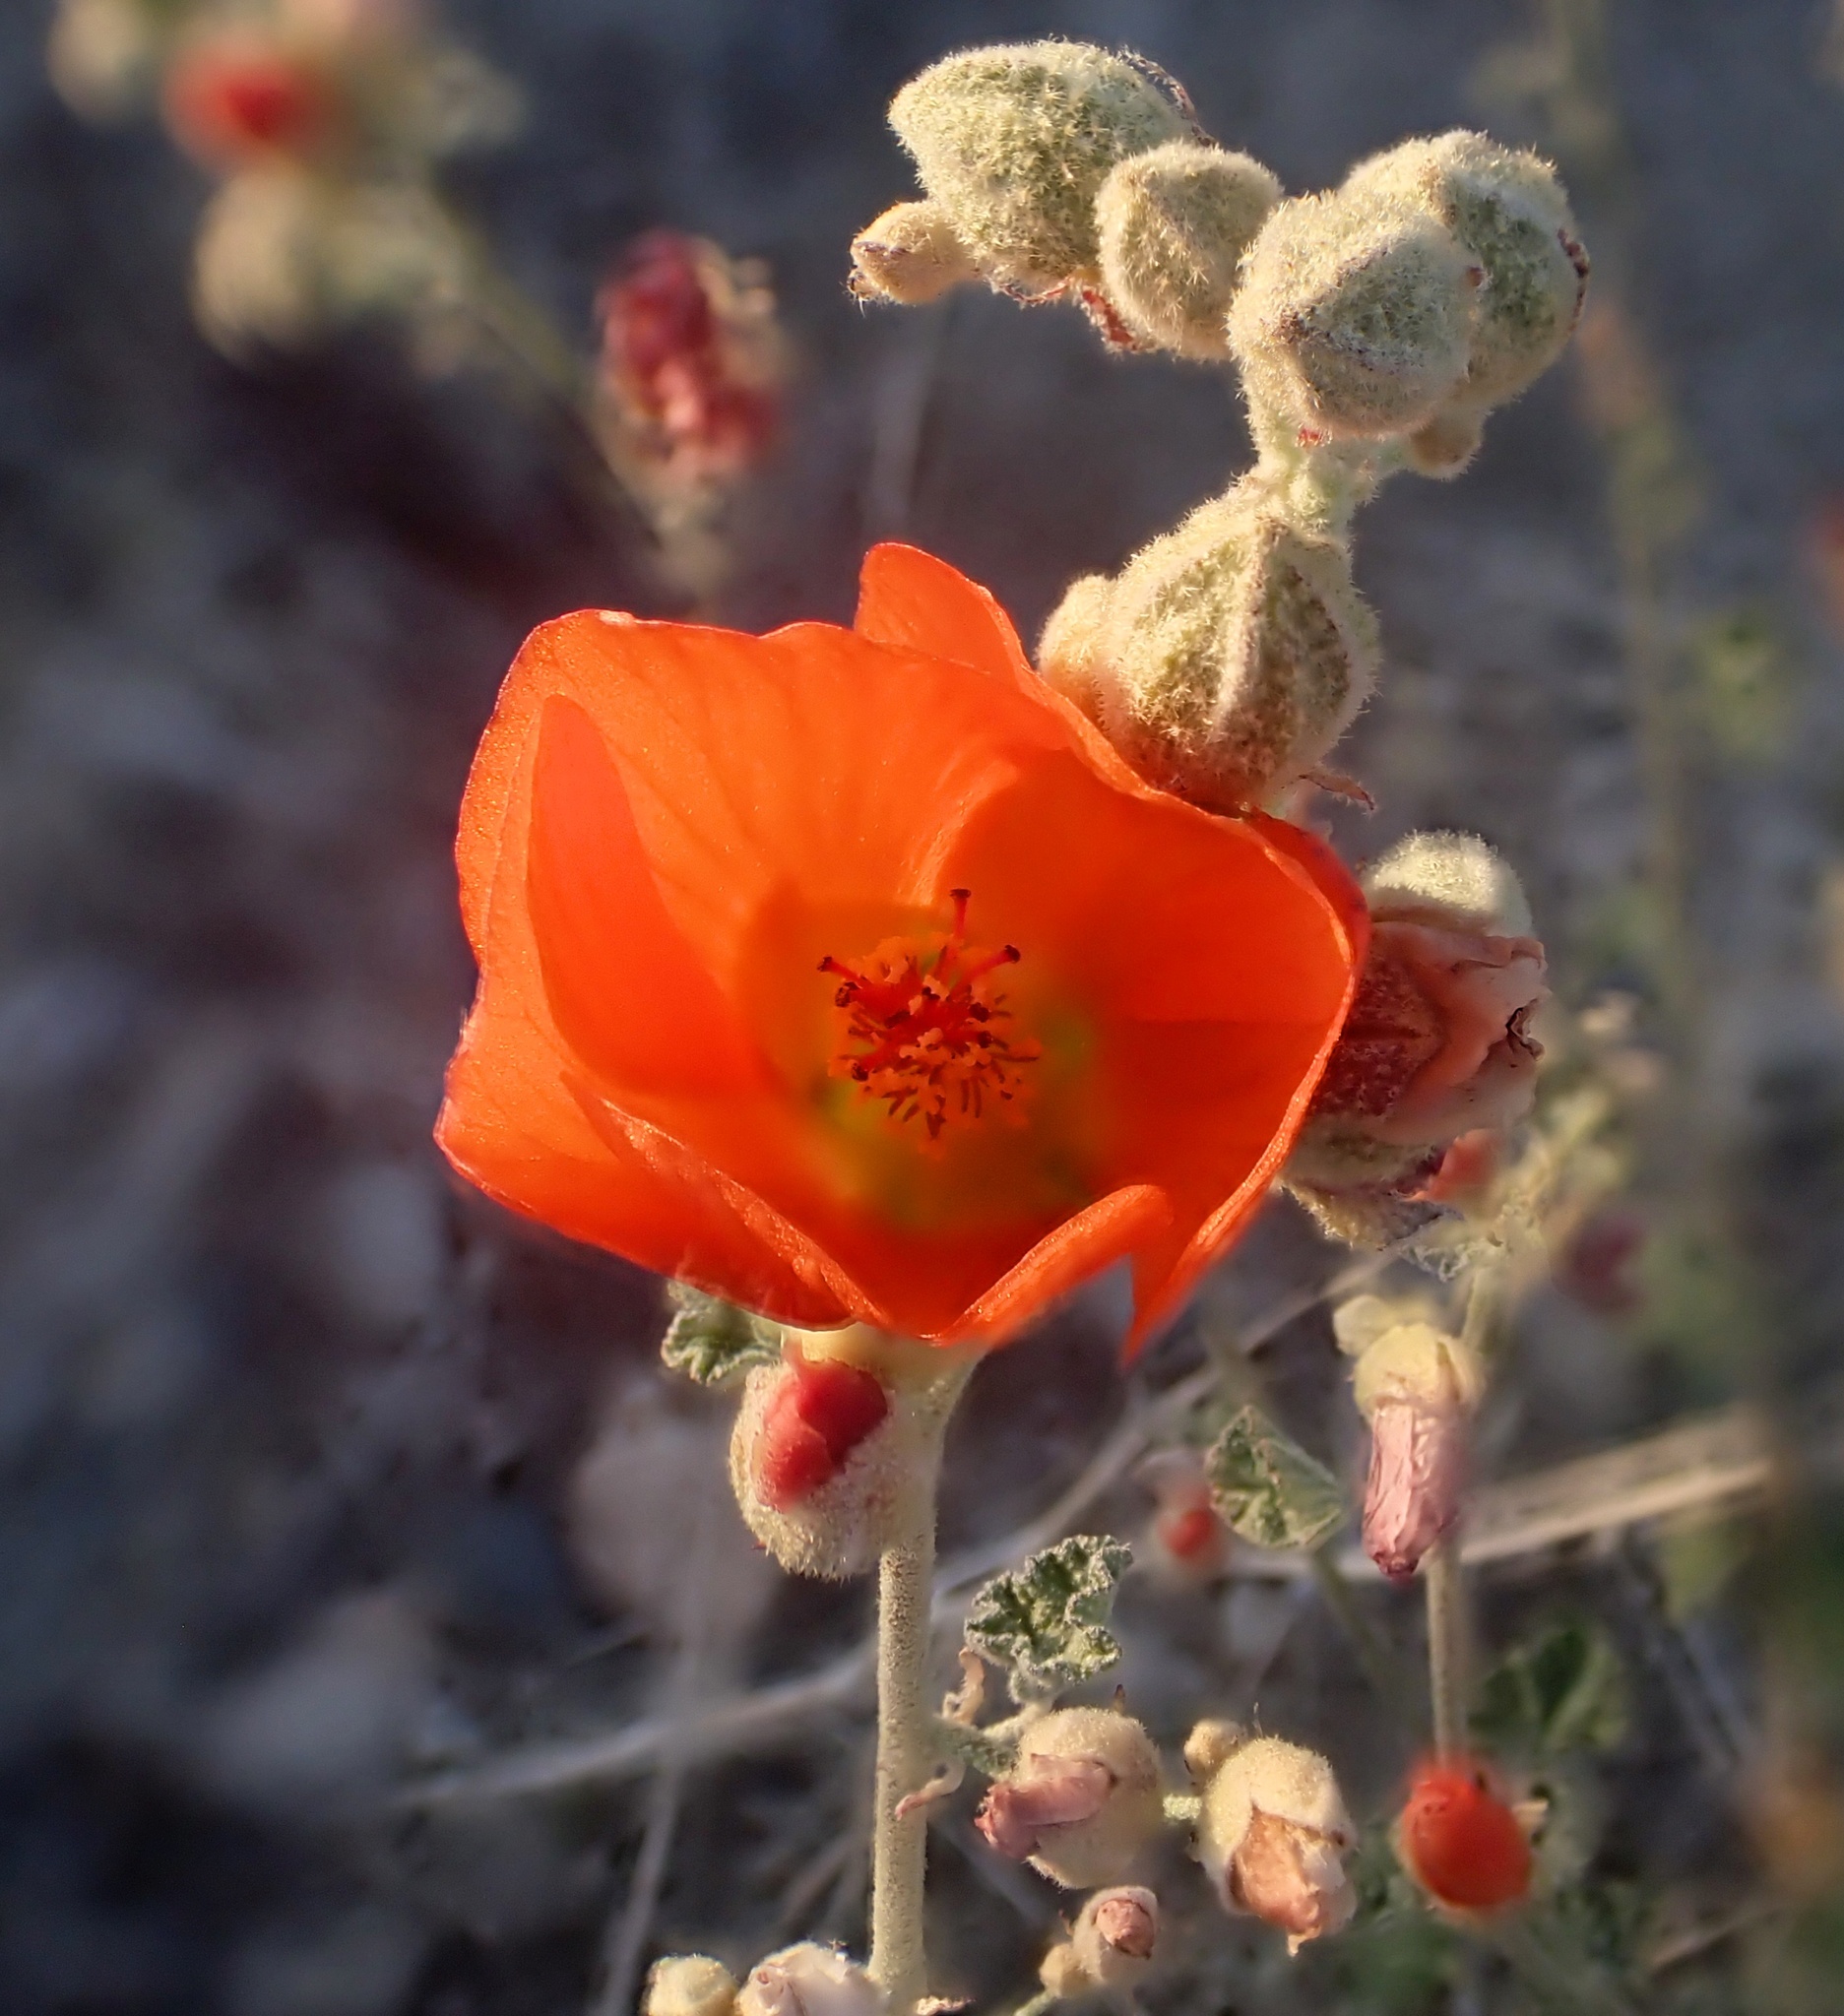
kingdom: Plantae
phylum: Tracheophyta
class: Magnoliopsida
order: Malvales
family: Malvaceae
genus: Sphaeralcea
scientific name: Sphaeralcea ambigua
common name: Apricot globe-mallow
